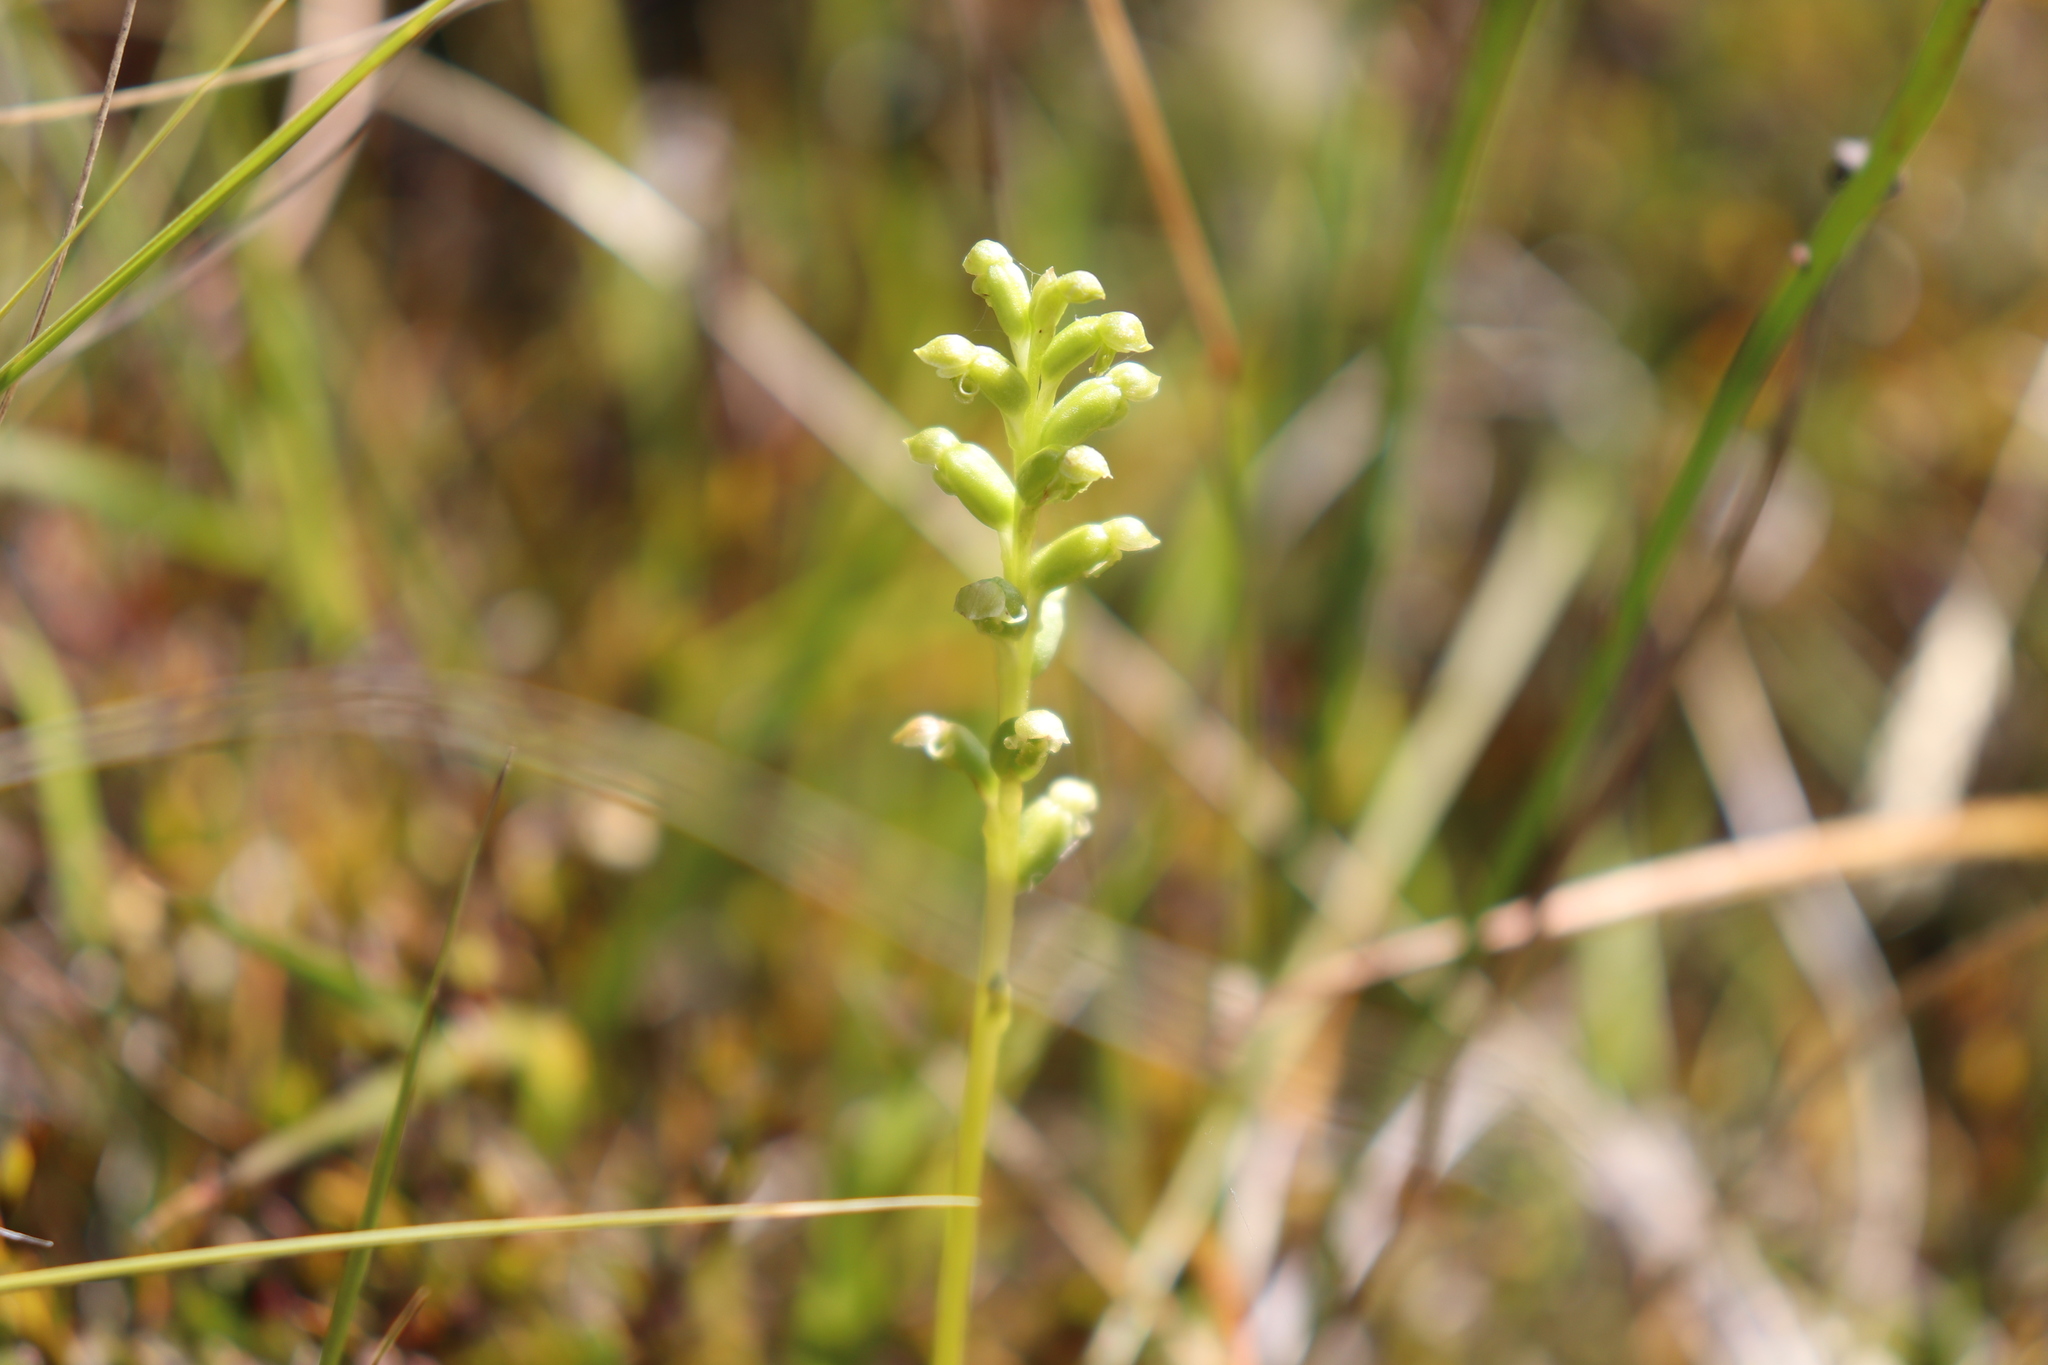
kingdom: Plantae
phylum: Tracheophyta
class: Liliopsida
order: Asparagales
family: Orchidaceae
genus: Microtis
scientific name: Microtis unifolia
